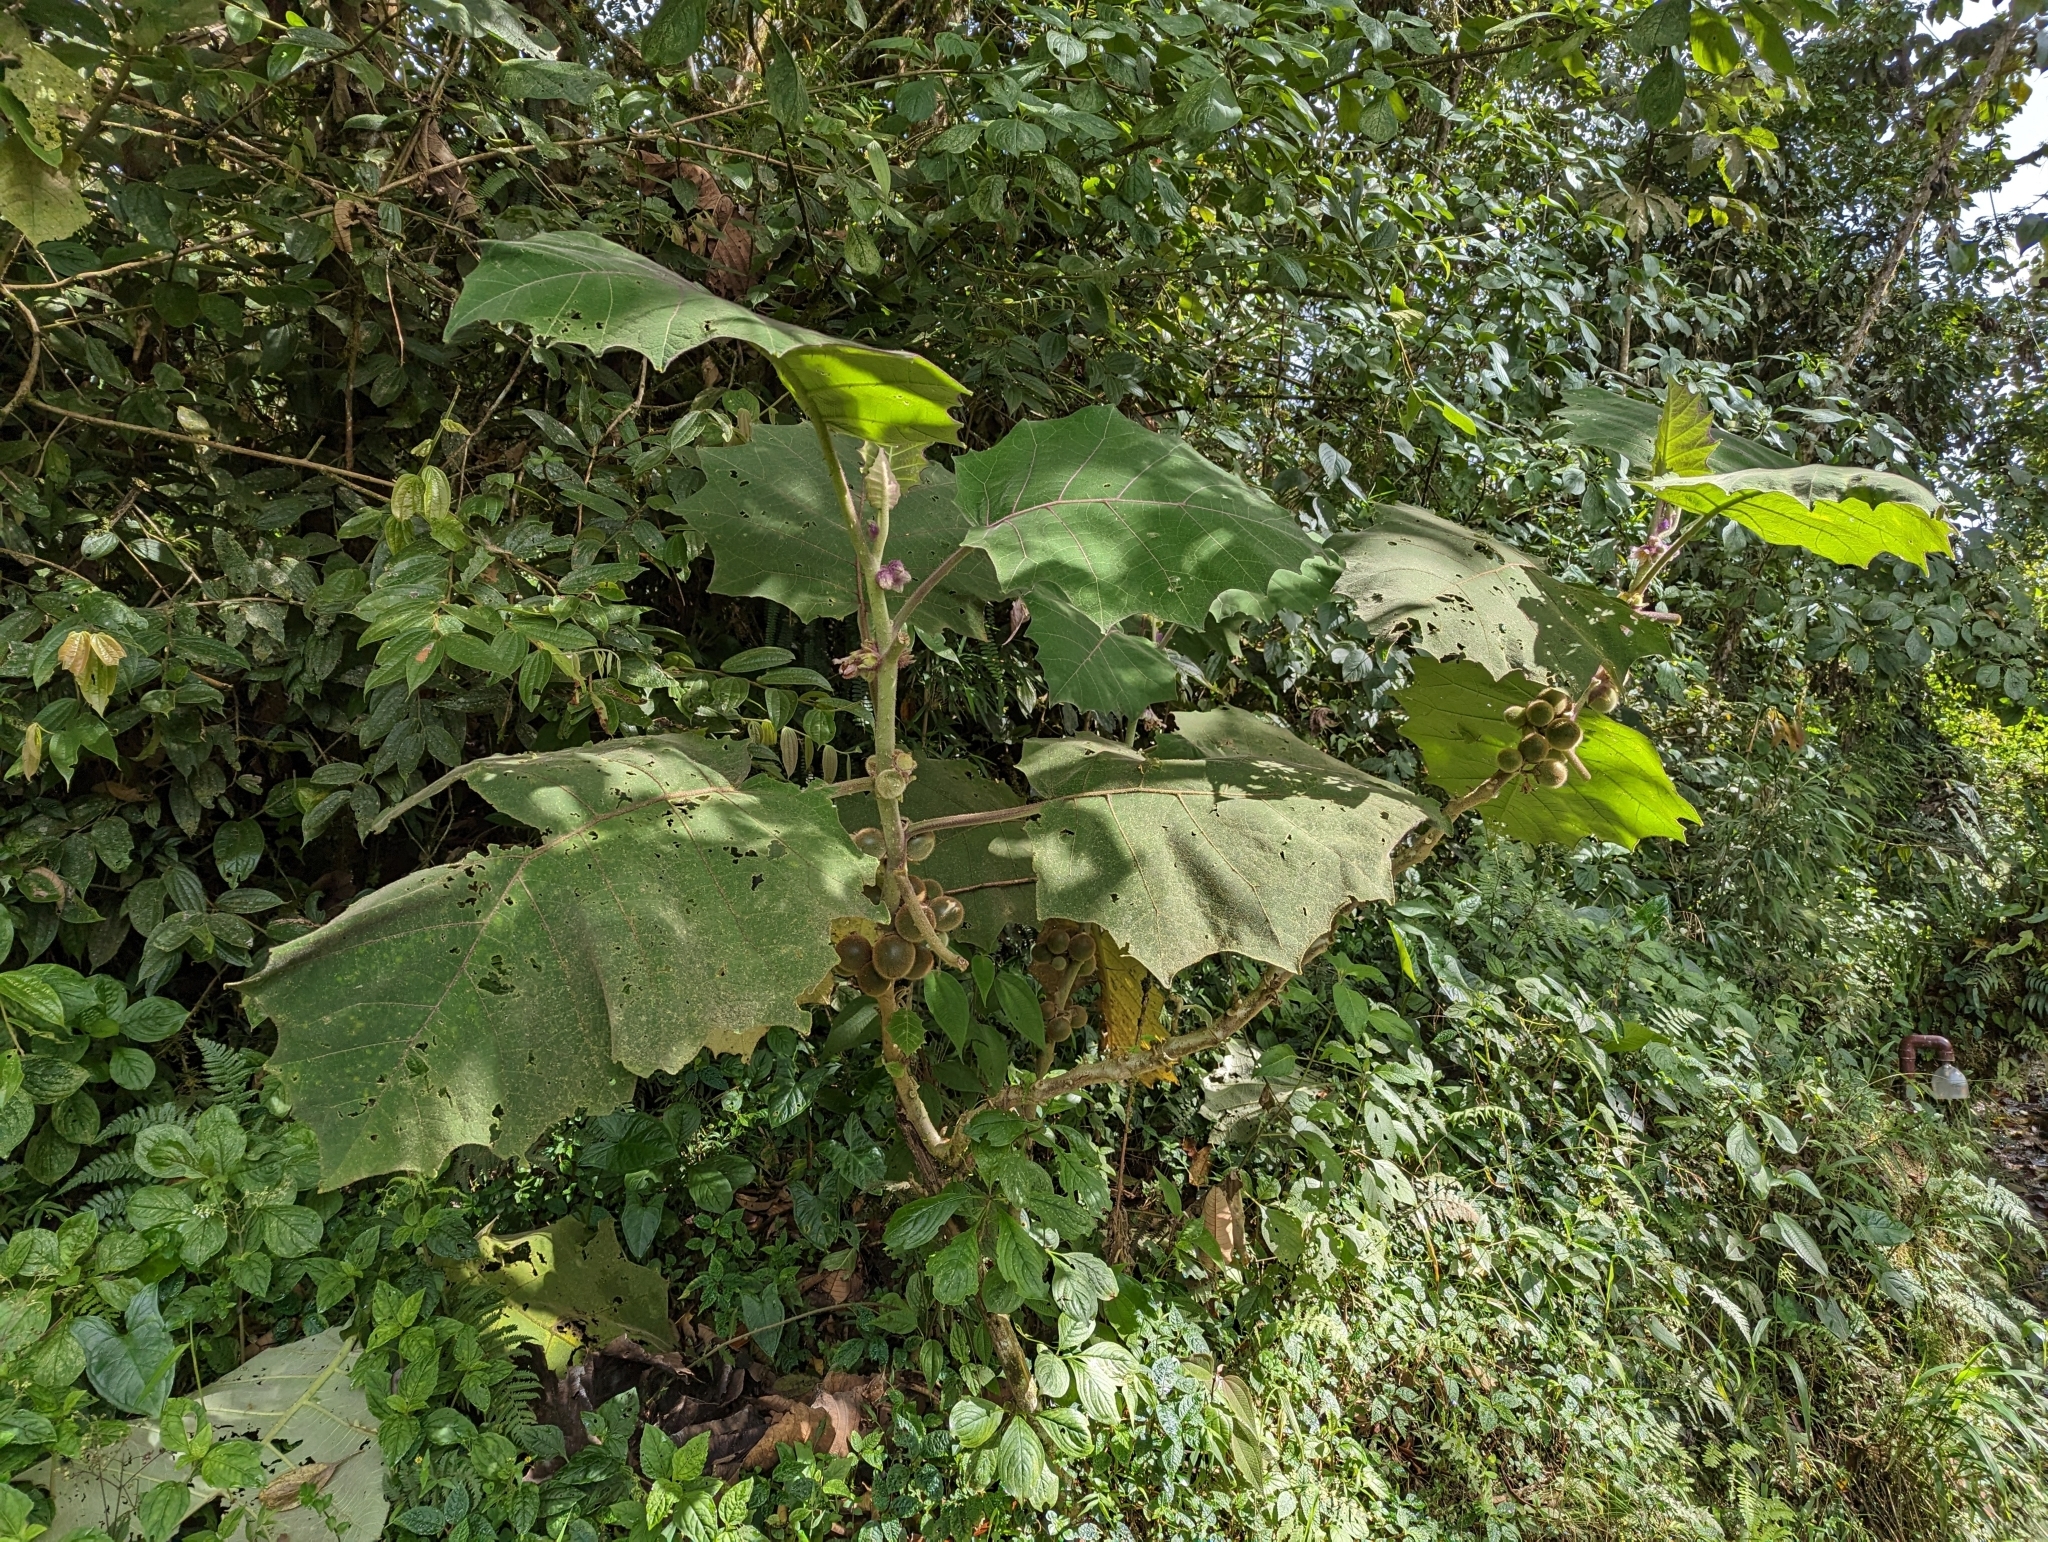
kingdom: Plantae
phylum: Tracheophyta
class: Magnoliopsida
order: Solanales
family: Solanaceae
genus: Solanum
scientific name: Solanum quitoense
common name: Quito-orange
